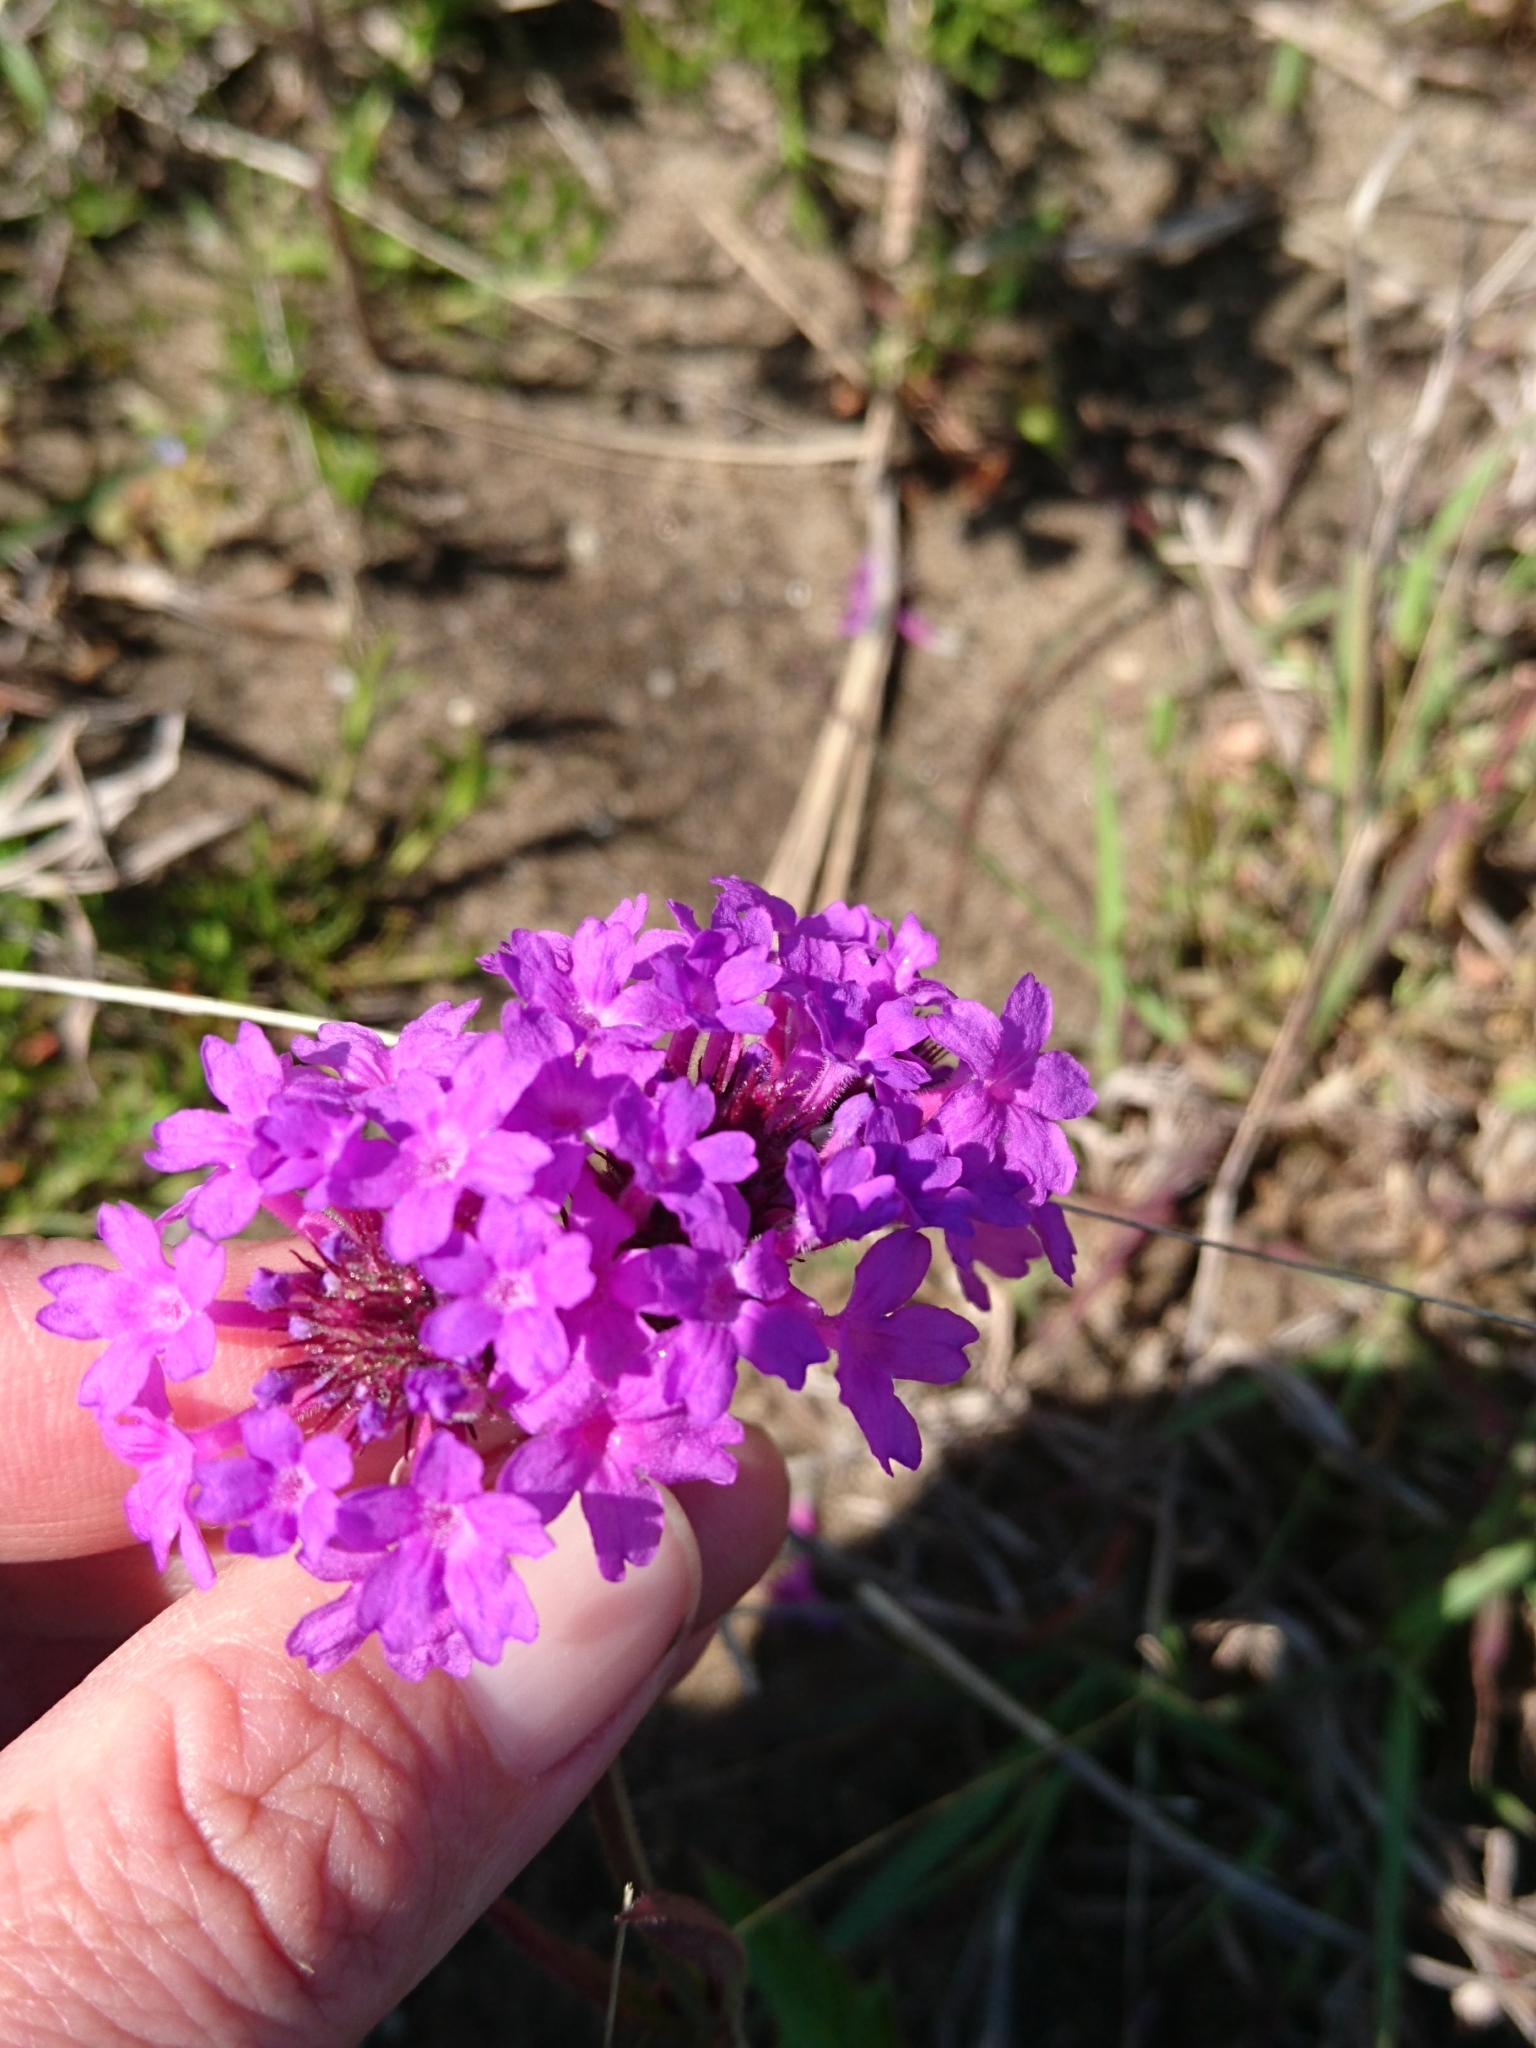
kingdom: Plantae
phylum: Tracheophyta
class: Magnoliopsida
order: Lamiales
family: Verbenaceae
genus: Verbena
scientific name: Verbena rigida
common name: Slender vervain
